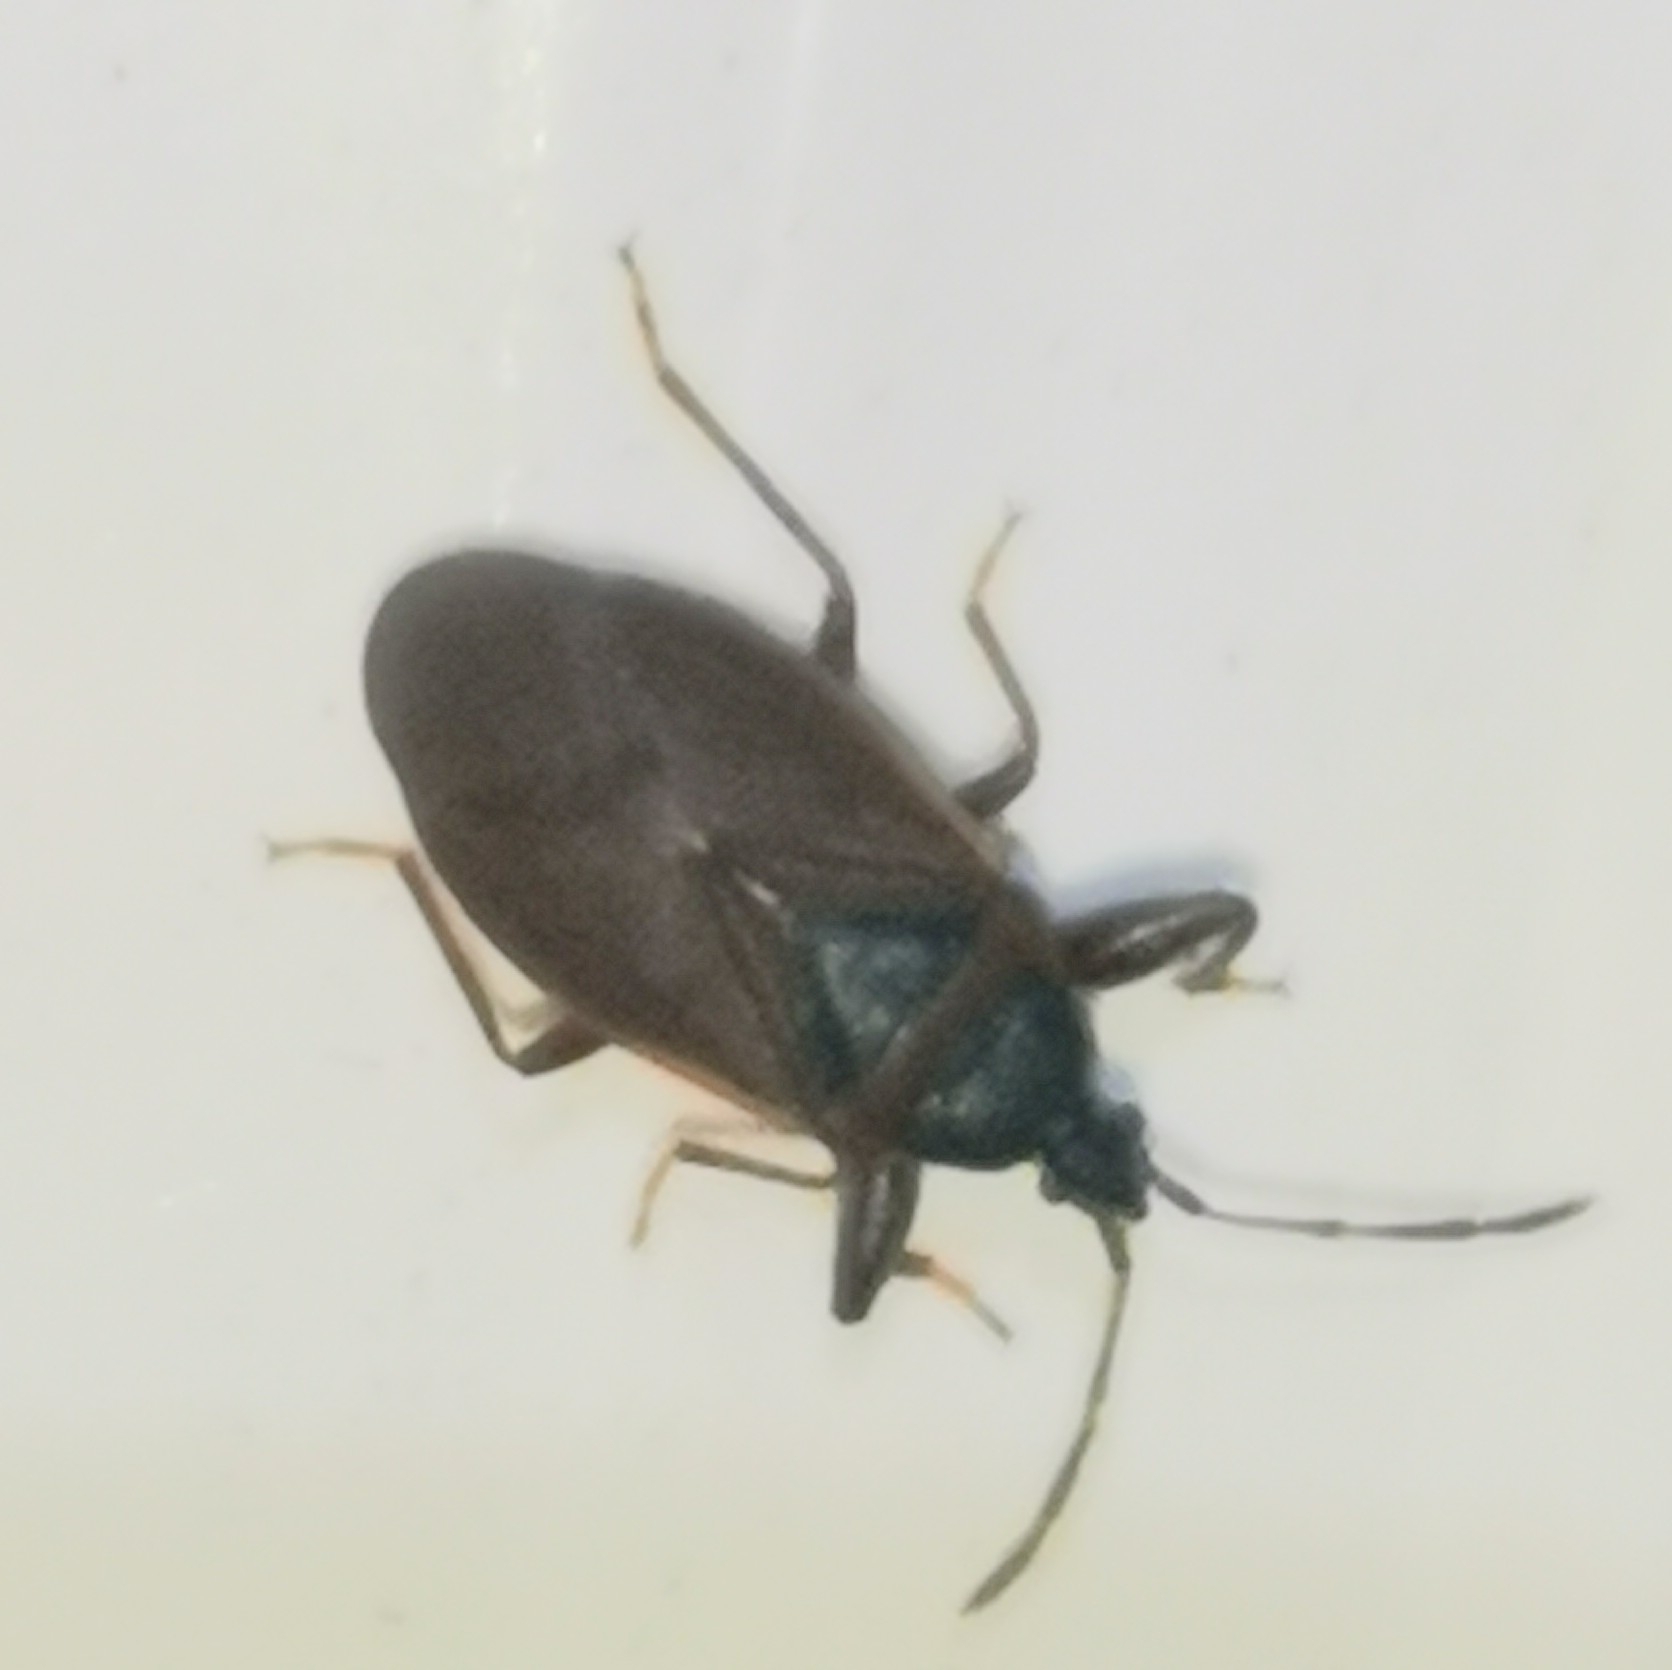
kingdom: Animalia
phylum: Arthropoda
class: Insecta
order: Hemiptera
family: Rhyparochromidae
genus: Gastrodes
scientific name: Gastrodes grossipes
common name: Pine cone bug
